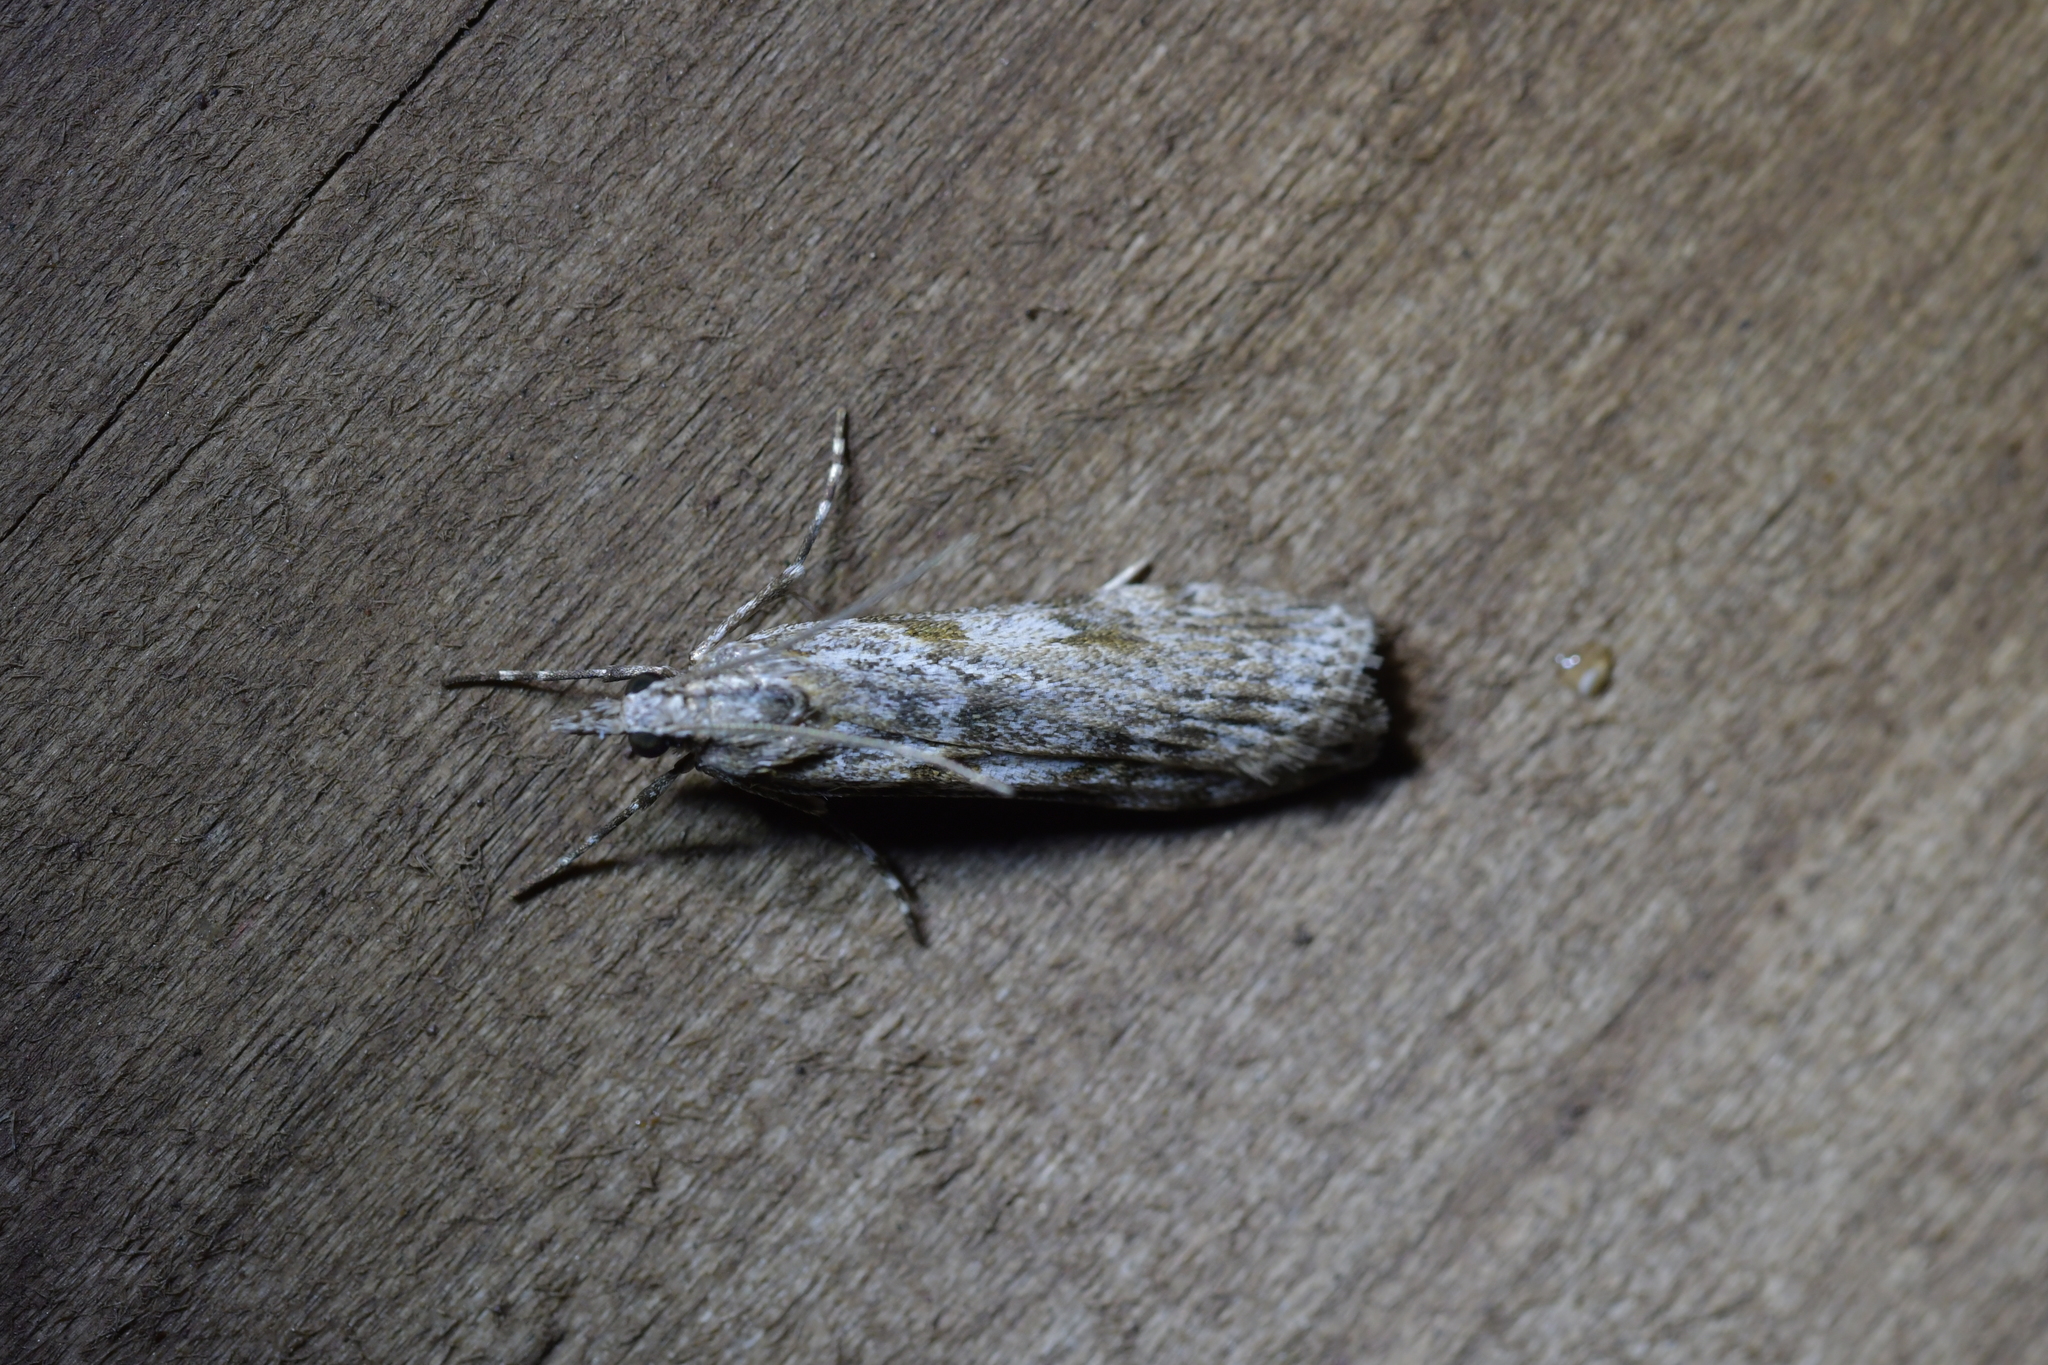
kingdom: Animalia
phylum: Arthropoda
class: Insecta
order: Lepidoptera
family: Crambidae
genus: Scoparia
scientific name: Scoparia halopis
